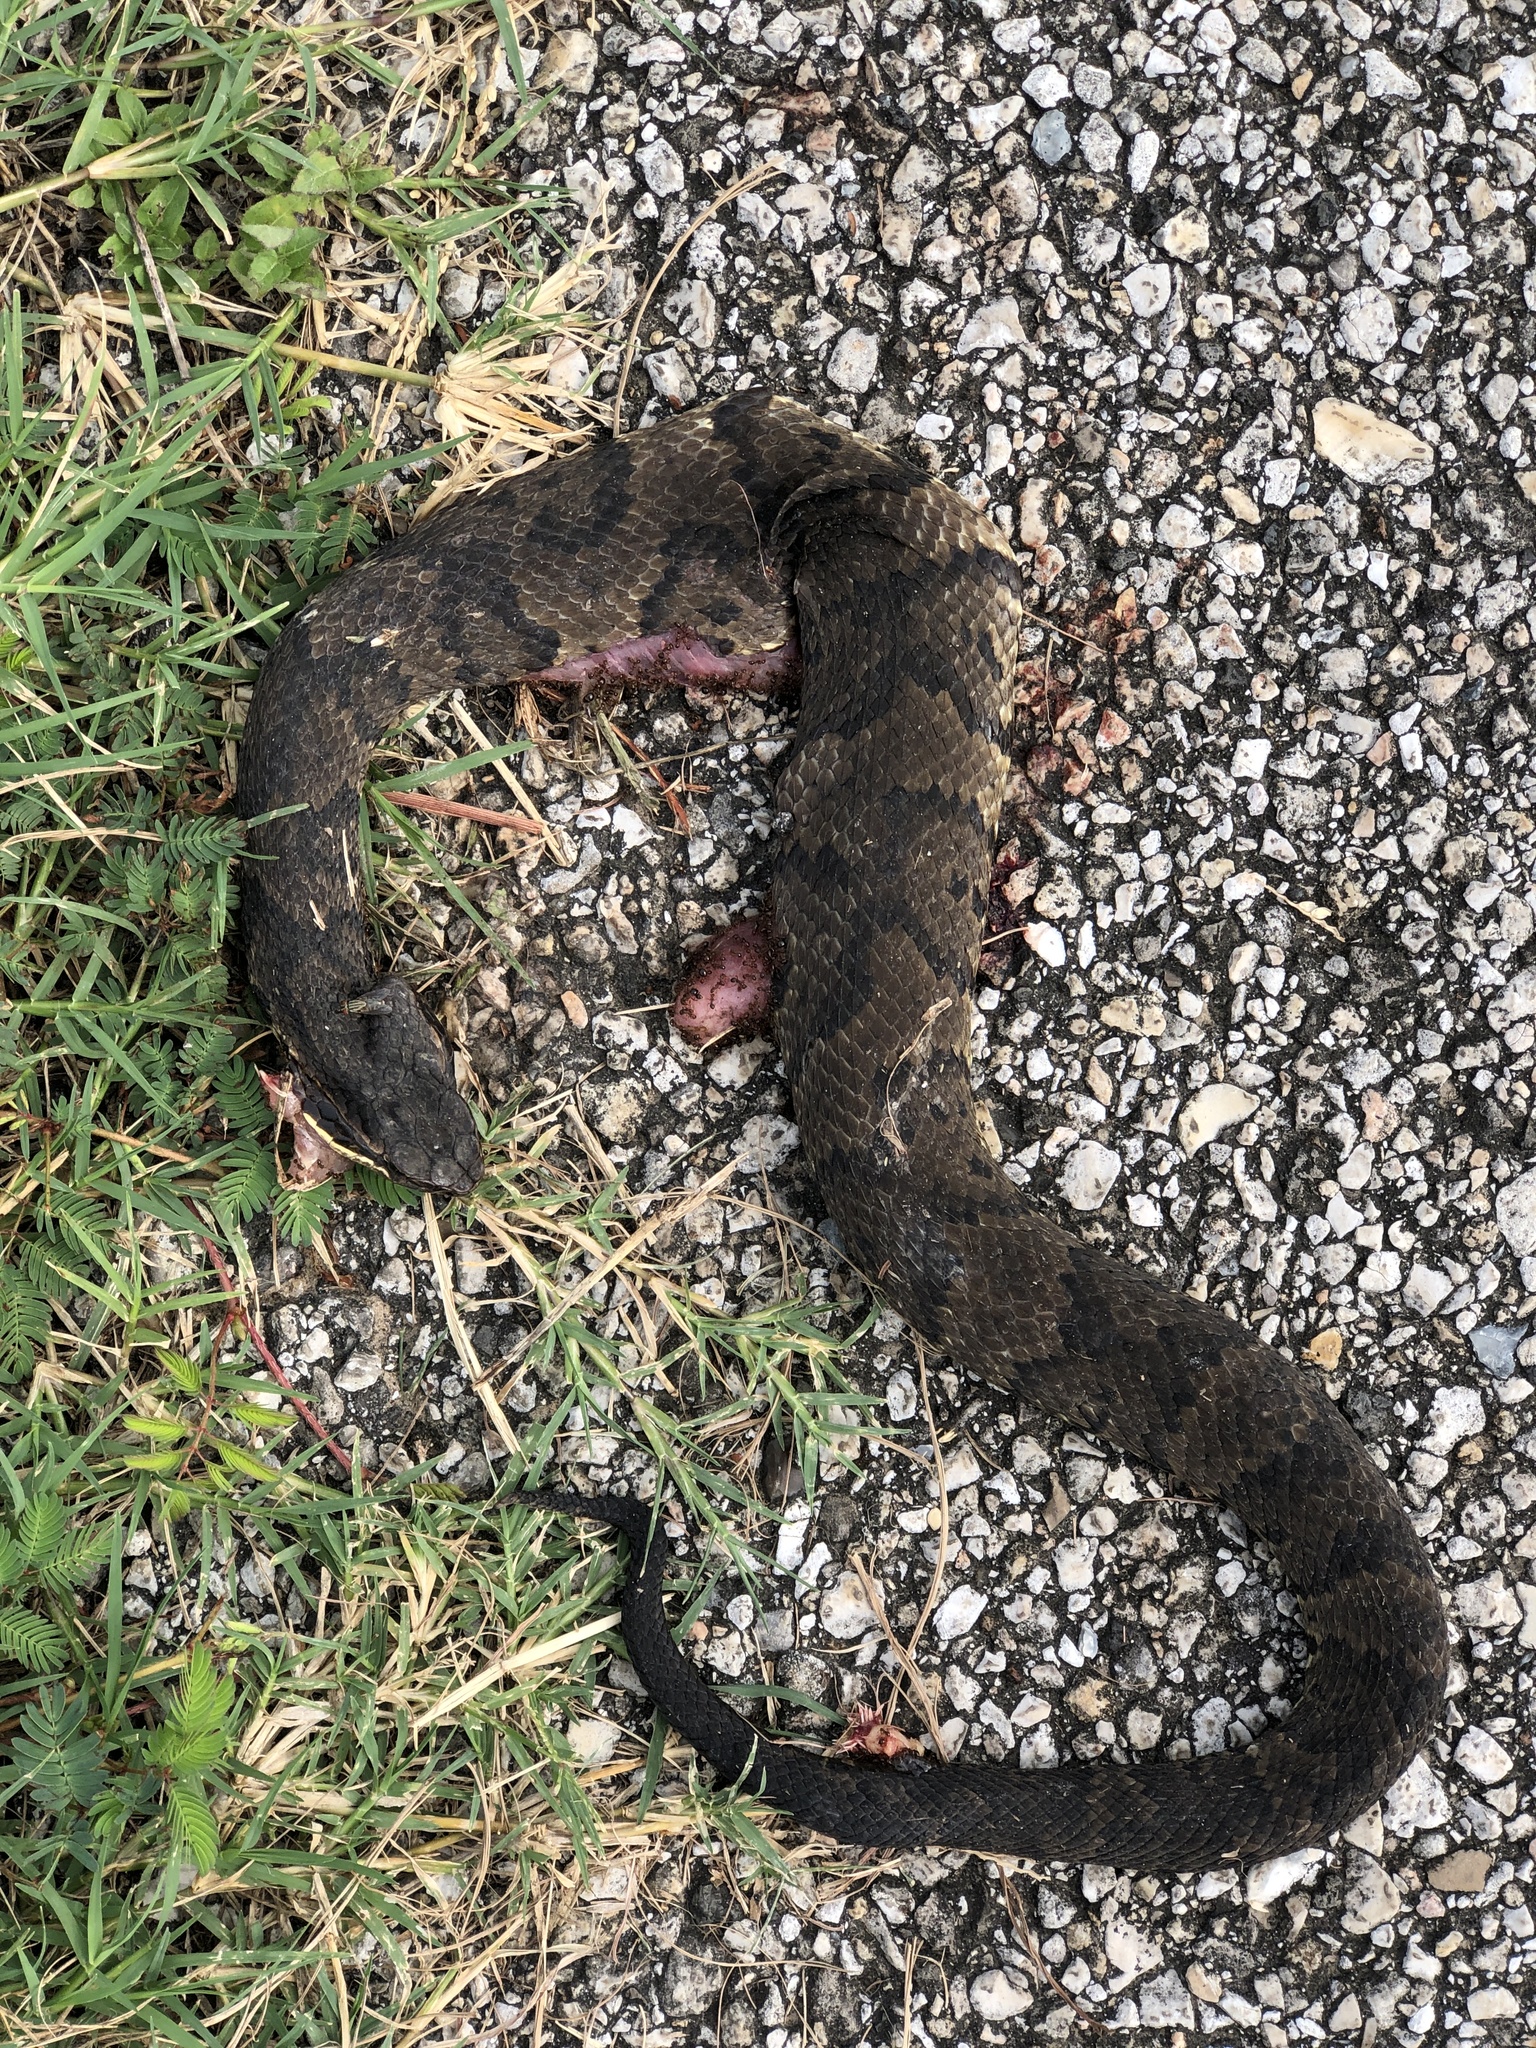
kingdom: Animalia
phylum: Chordata
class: Squamata
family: Viperidae
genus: Agkistrodon
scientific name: Agkistrodon piscivorus
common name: Cottonmouth
